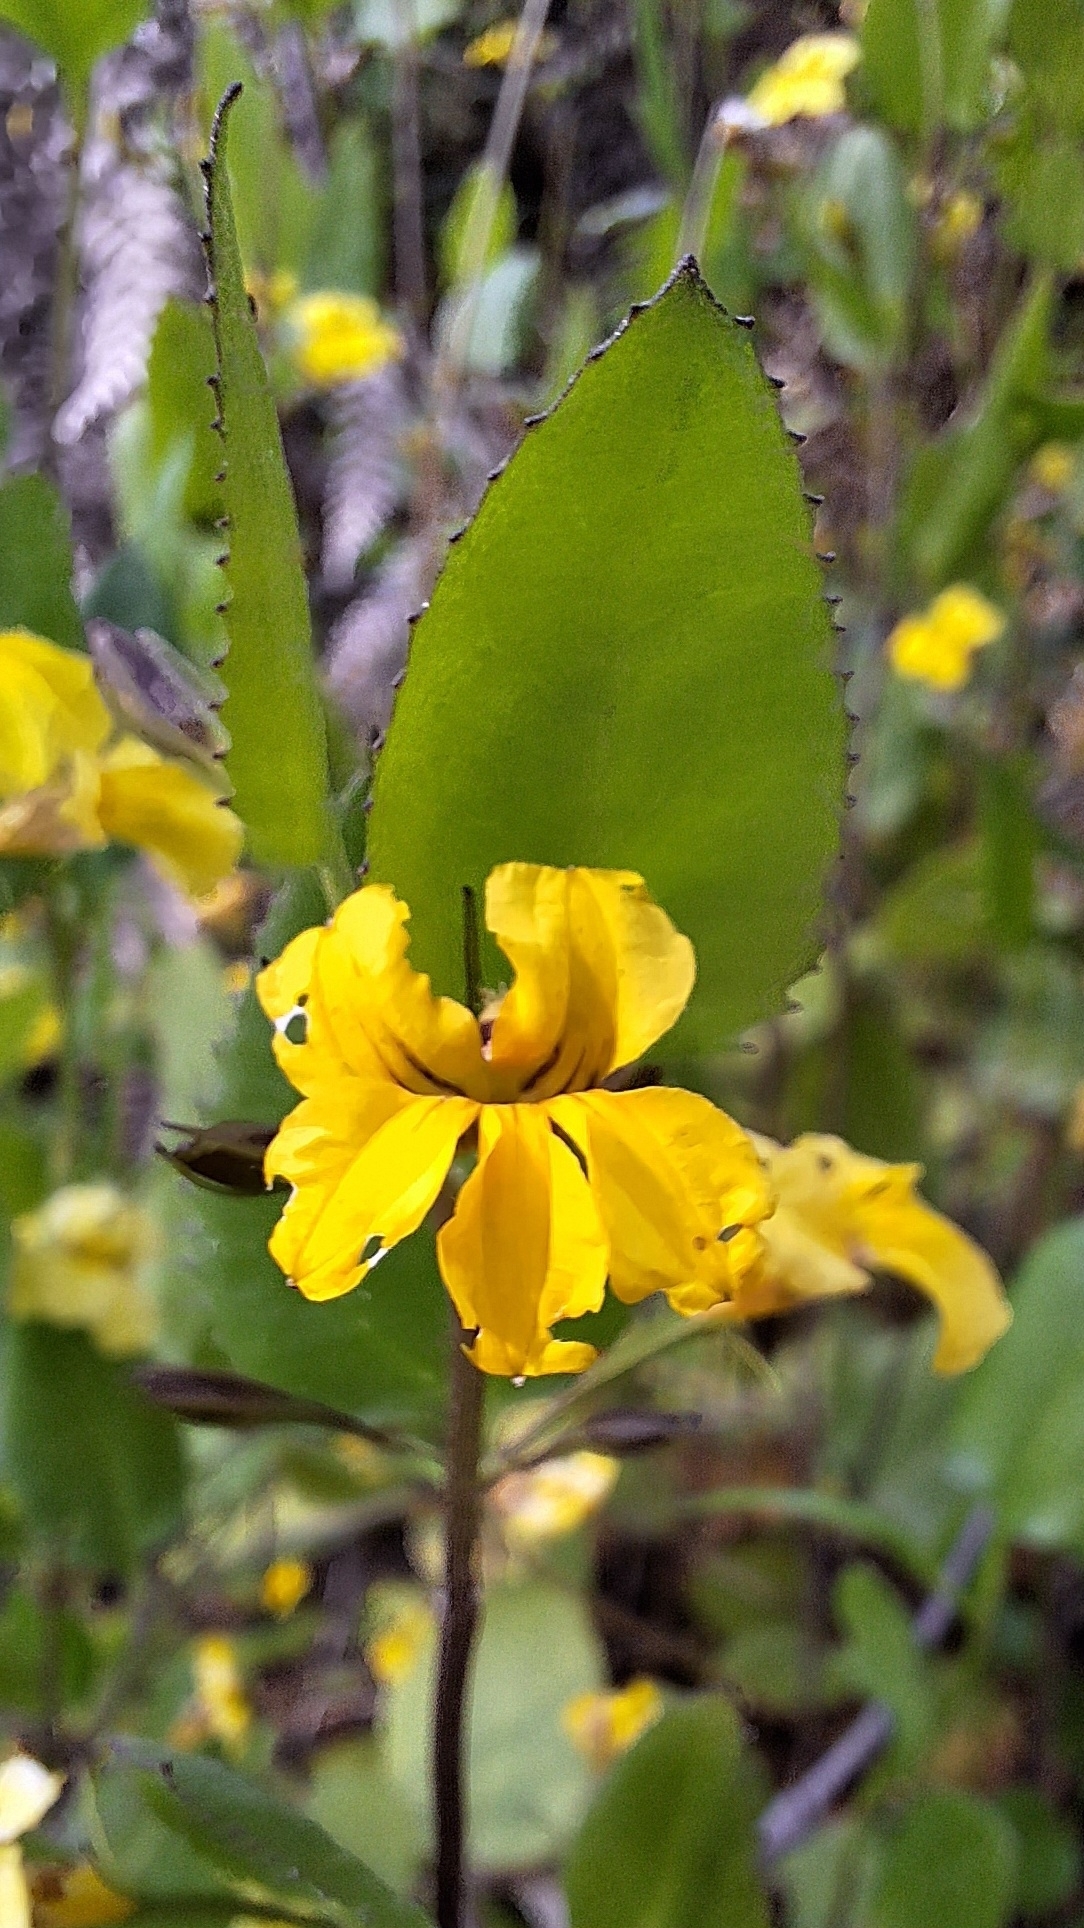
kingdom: Plantae
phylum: Tracheophyta
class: Magnoliopsida
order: Asterales
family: Goodeniaceae
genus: Goodenia
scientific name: Goodenia ovata
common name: Hop goodenia
